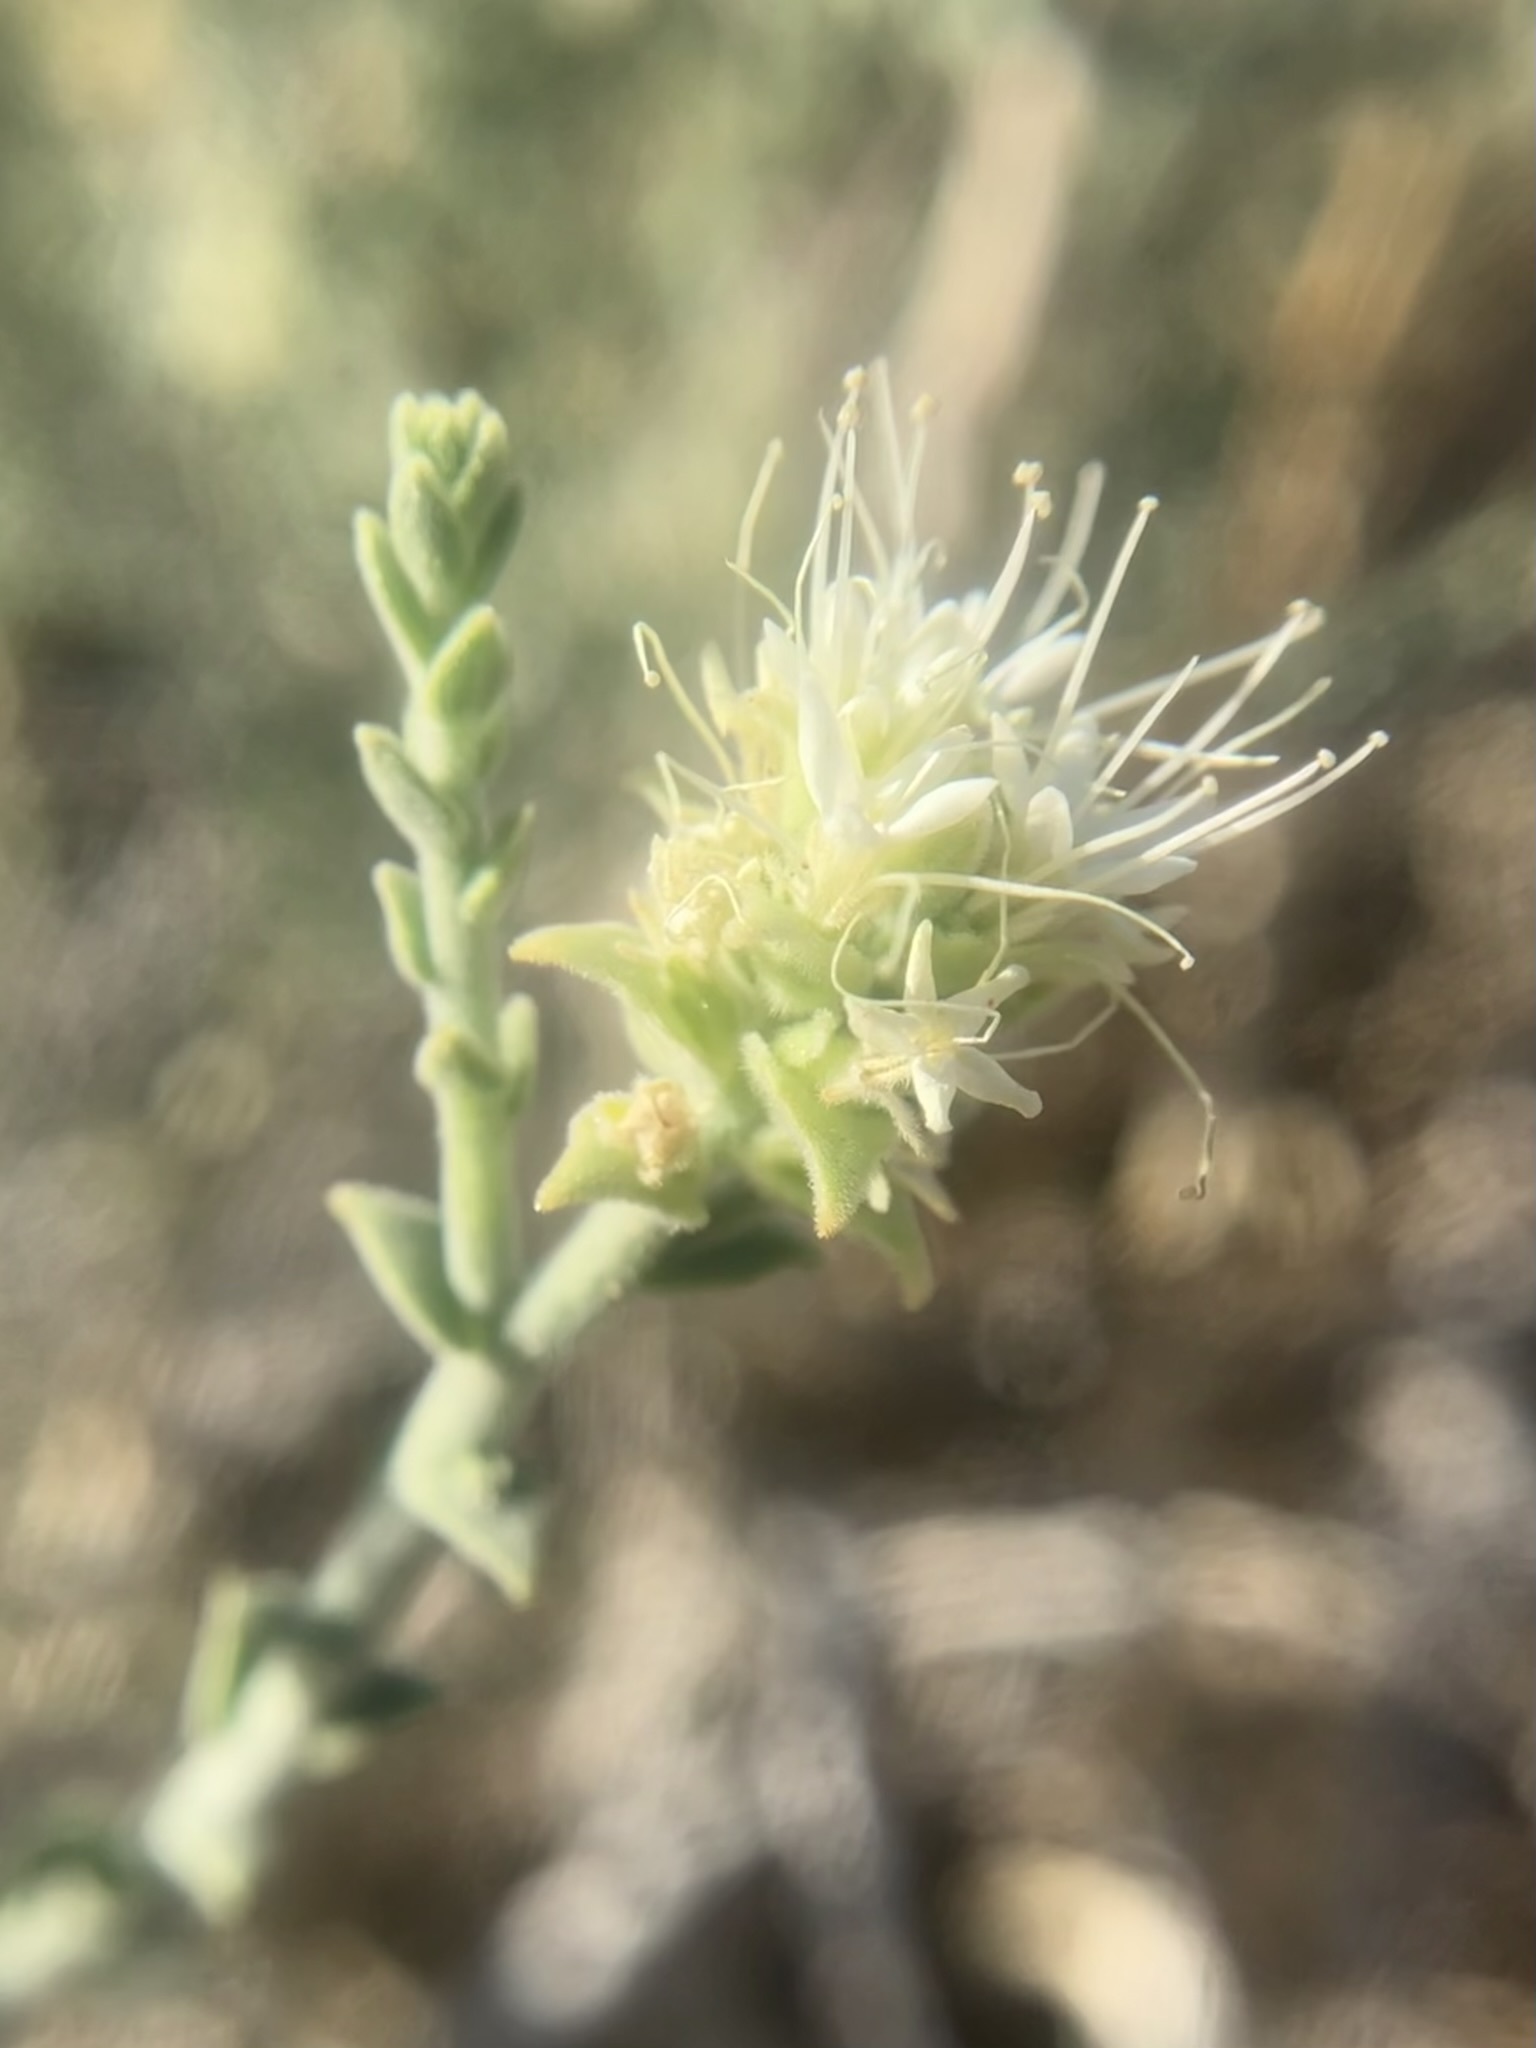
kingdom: Plantae
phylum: Tracheophyta
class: Magnoliopsida
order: Cornales
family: Loasaceae
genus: Petalonyx
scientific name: Petalonyx thurberi
